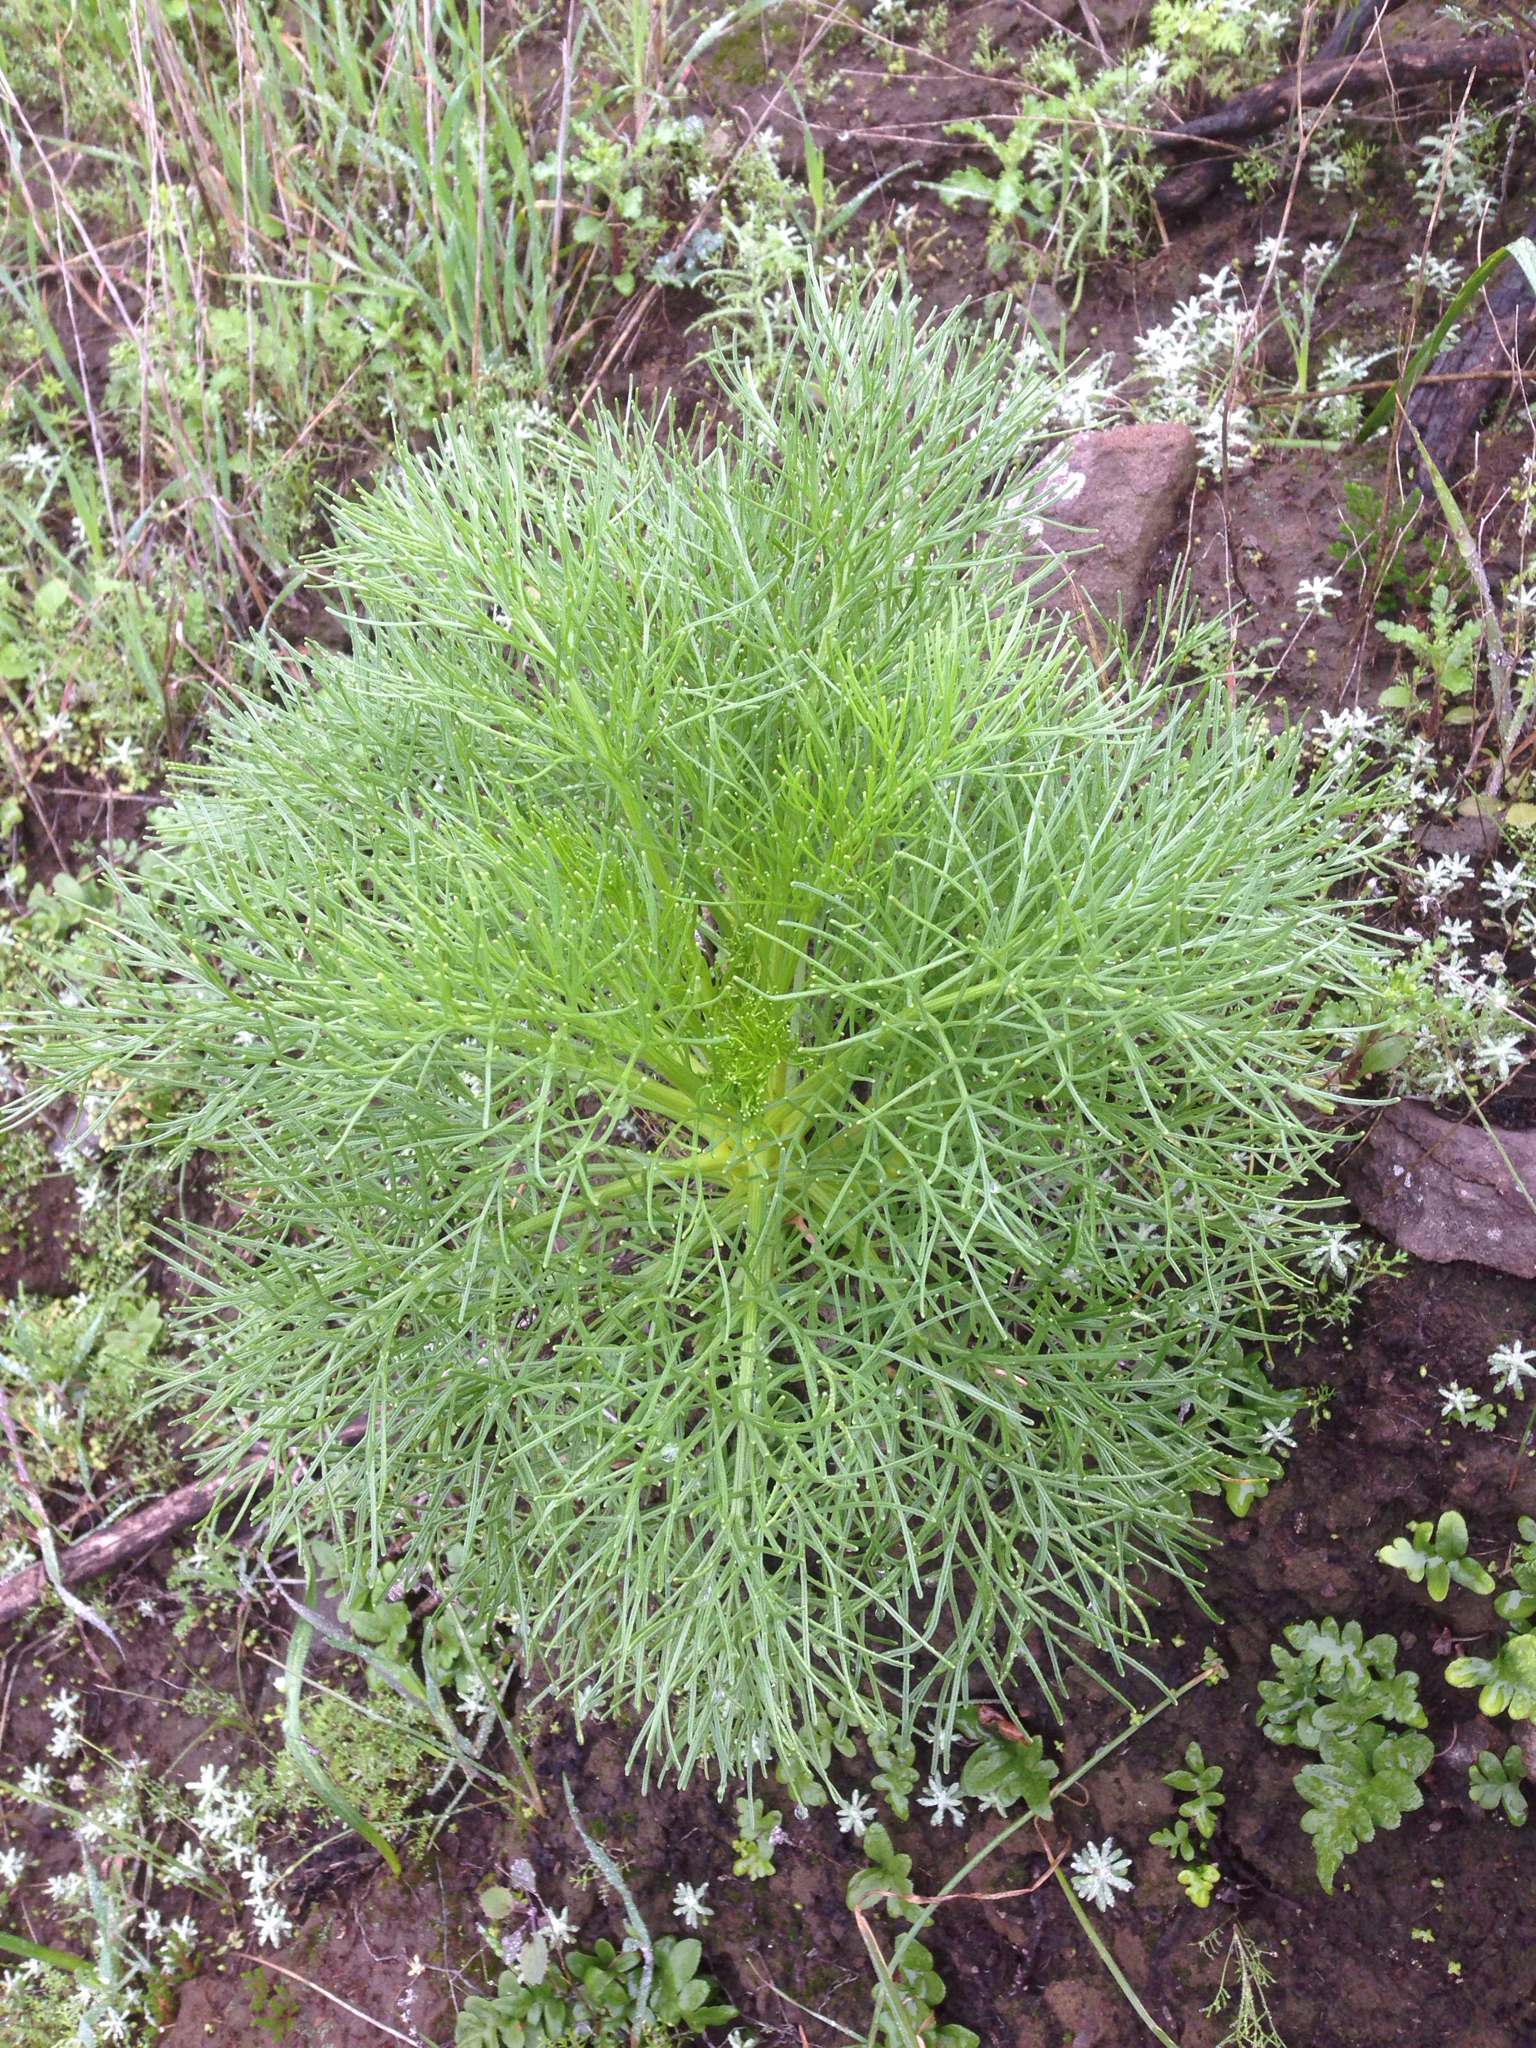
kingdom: Plantae
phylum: Tracheophyta
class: Magnoliopsida
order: Asterales
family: Asteraceae
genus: Coreopsis
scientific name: Coreopsis gigantea
